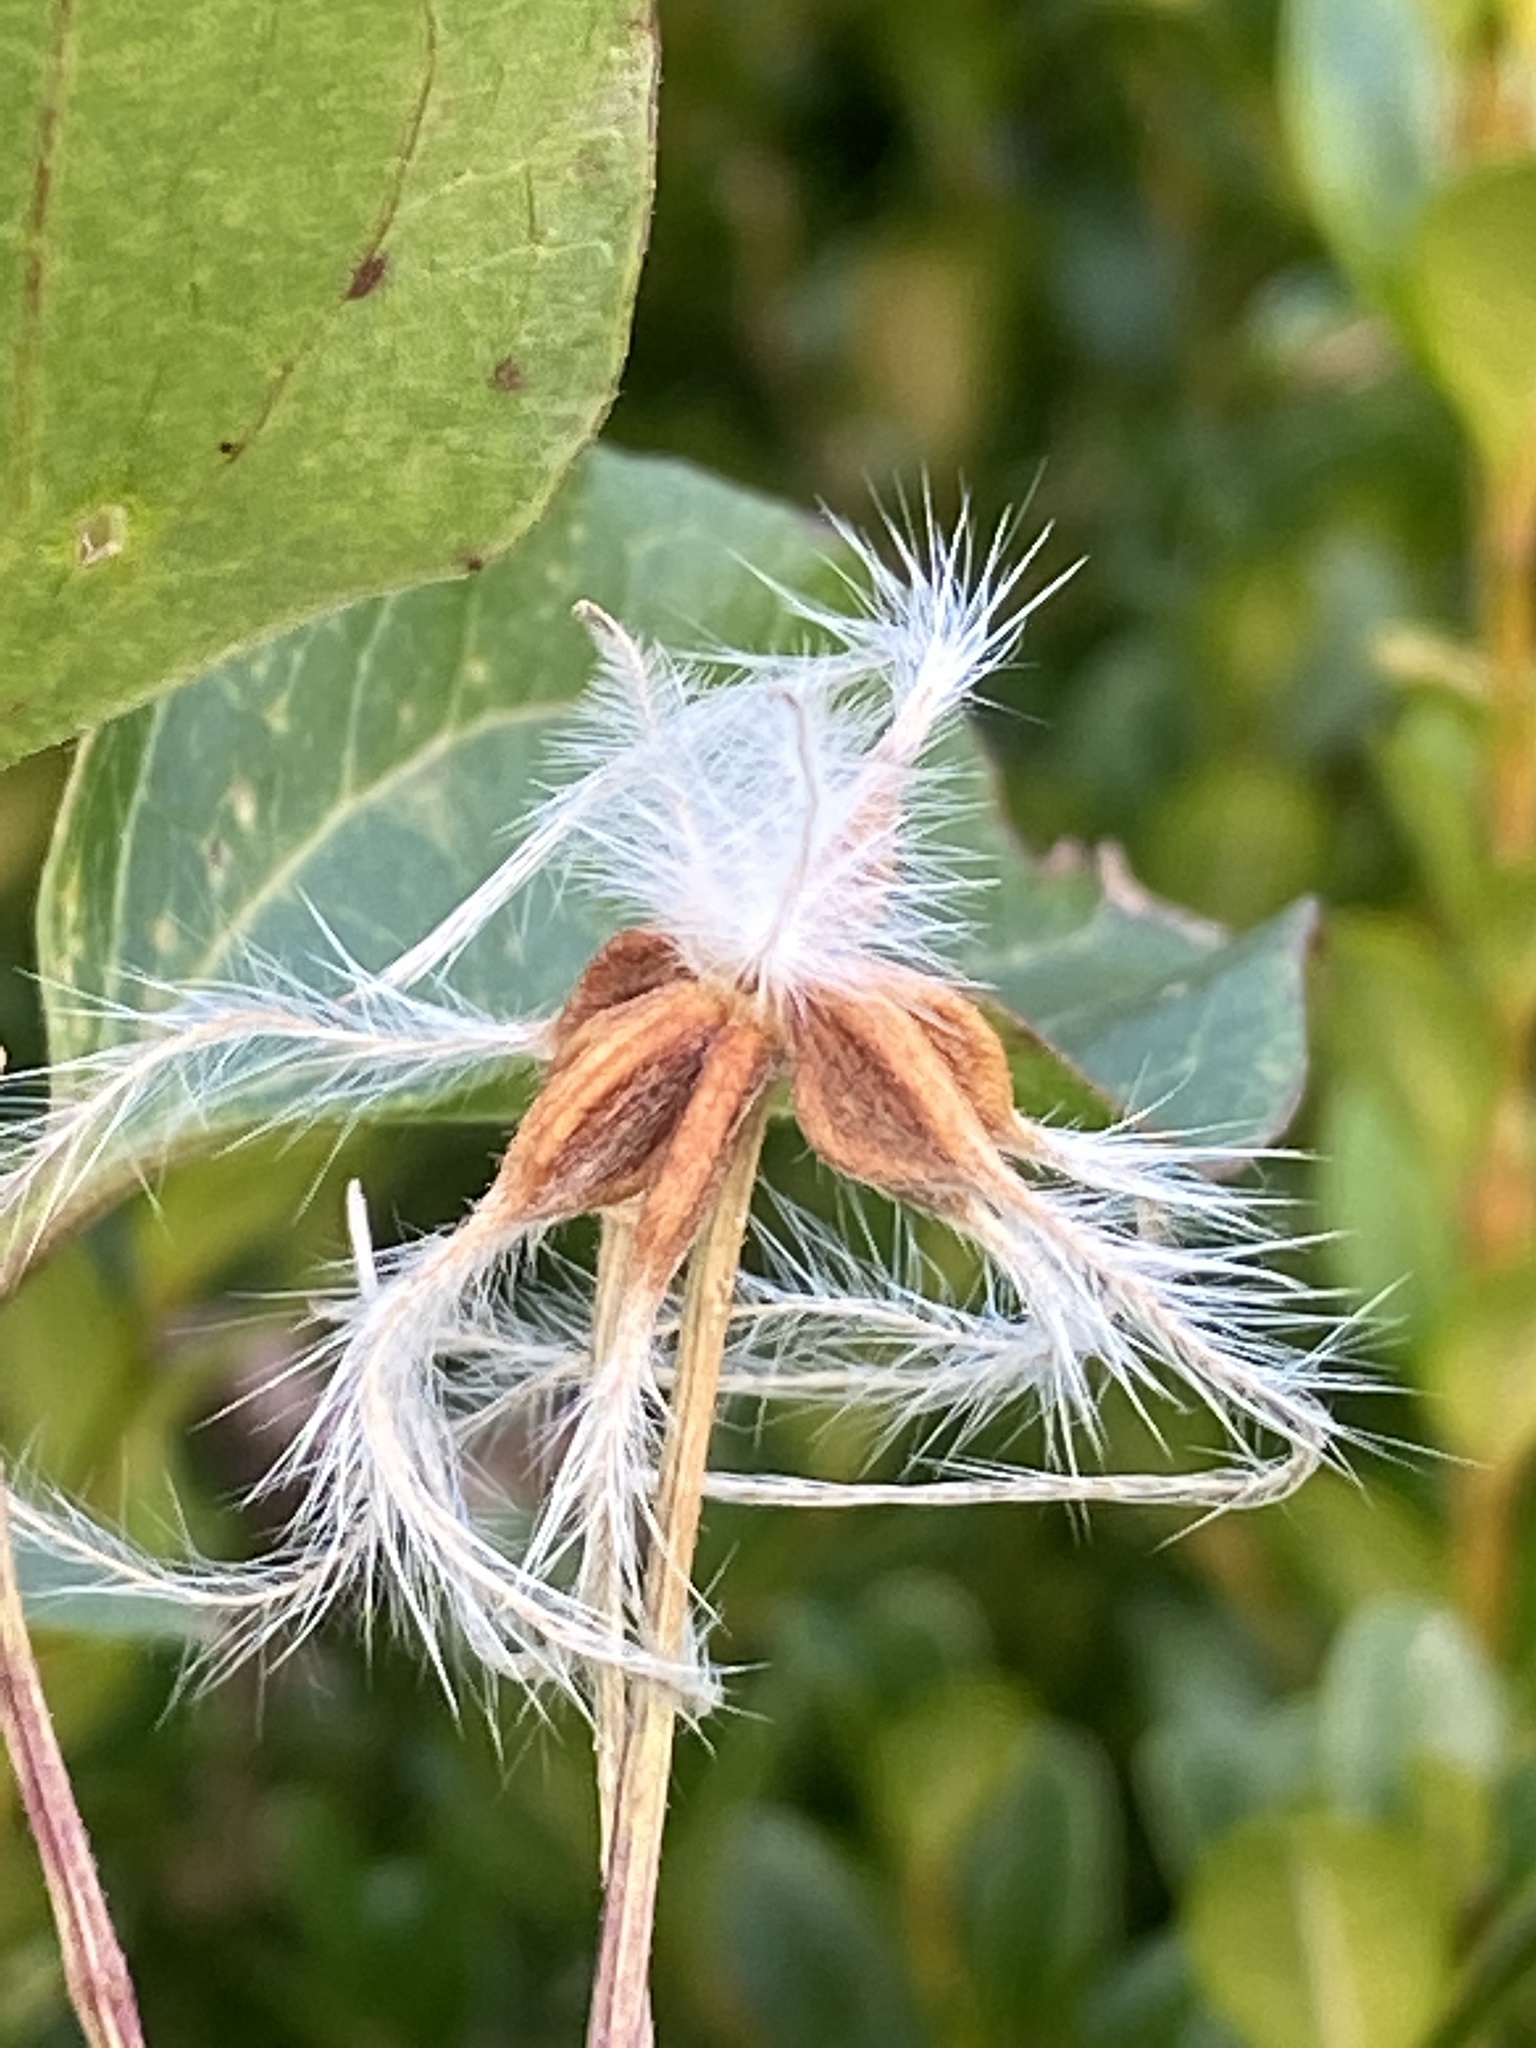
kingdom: Plantae
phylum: Tracheophyta
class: Magnoliopsida
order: Ranunculales
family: Ranunculaceae
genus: Clematis
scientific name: Clematis terniflora
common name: Sweet autumn clematis
